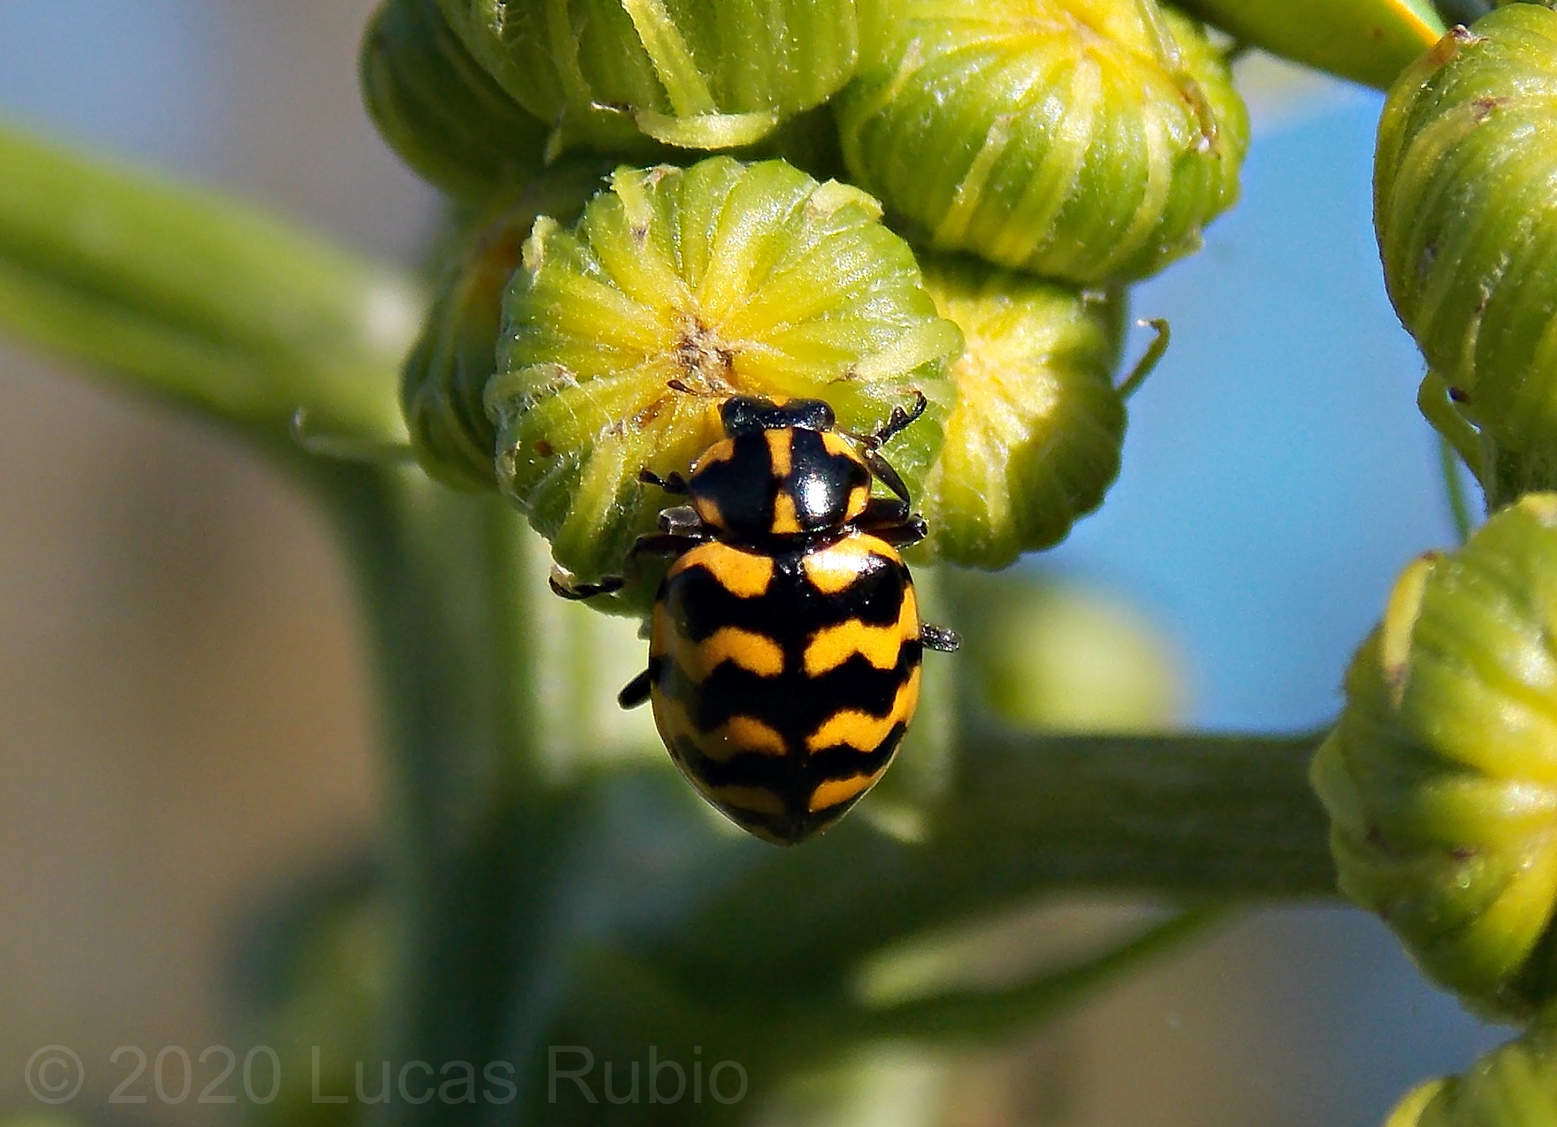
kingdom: Animalia
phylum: Arthropoda
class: Insecta
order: Coleoptera
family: Coccinellidae
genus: Coleomegilla
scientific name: Coleomegilla
